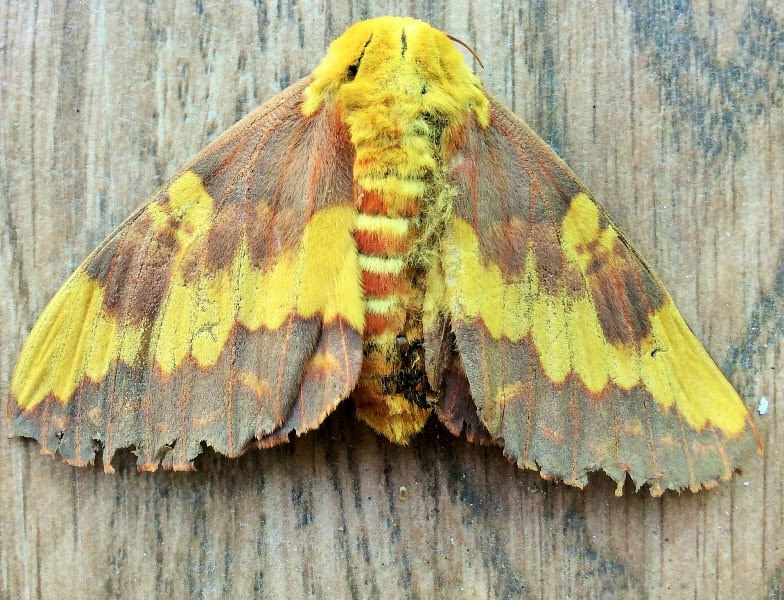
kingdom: Animalia
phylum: Arthropoda
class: Insecta
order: Lepidoptera
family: Saturniidae
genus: Citheronia
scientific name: Citheronia laocoon
